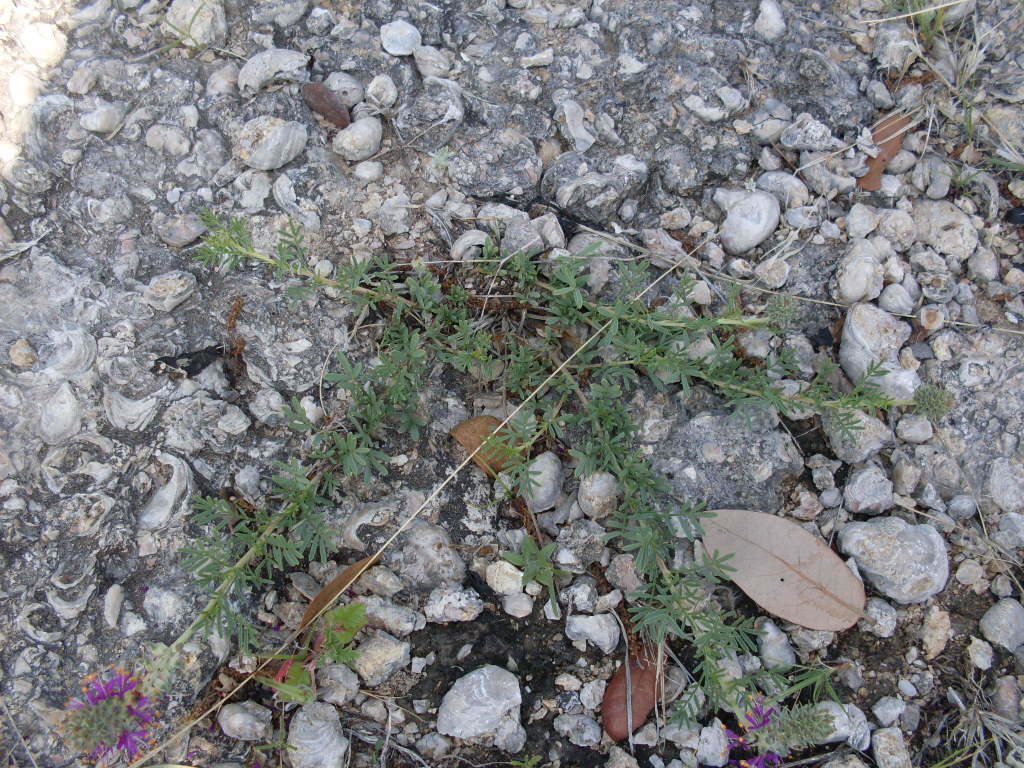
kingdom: Plantae
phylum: Tracheophyta
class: Magnoliopsida
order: Fabales
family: Fabaceae
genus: Dalea
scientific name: Dalea reverchonii
